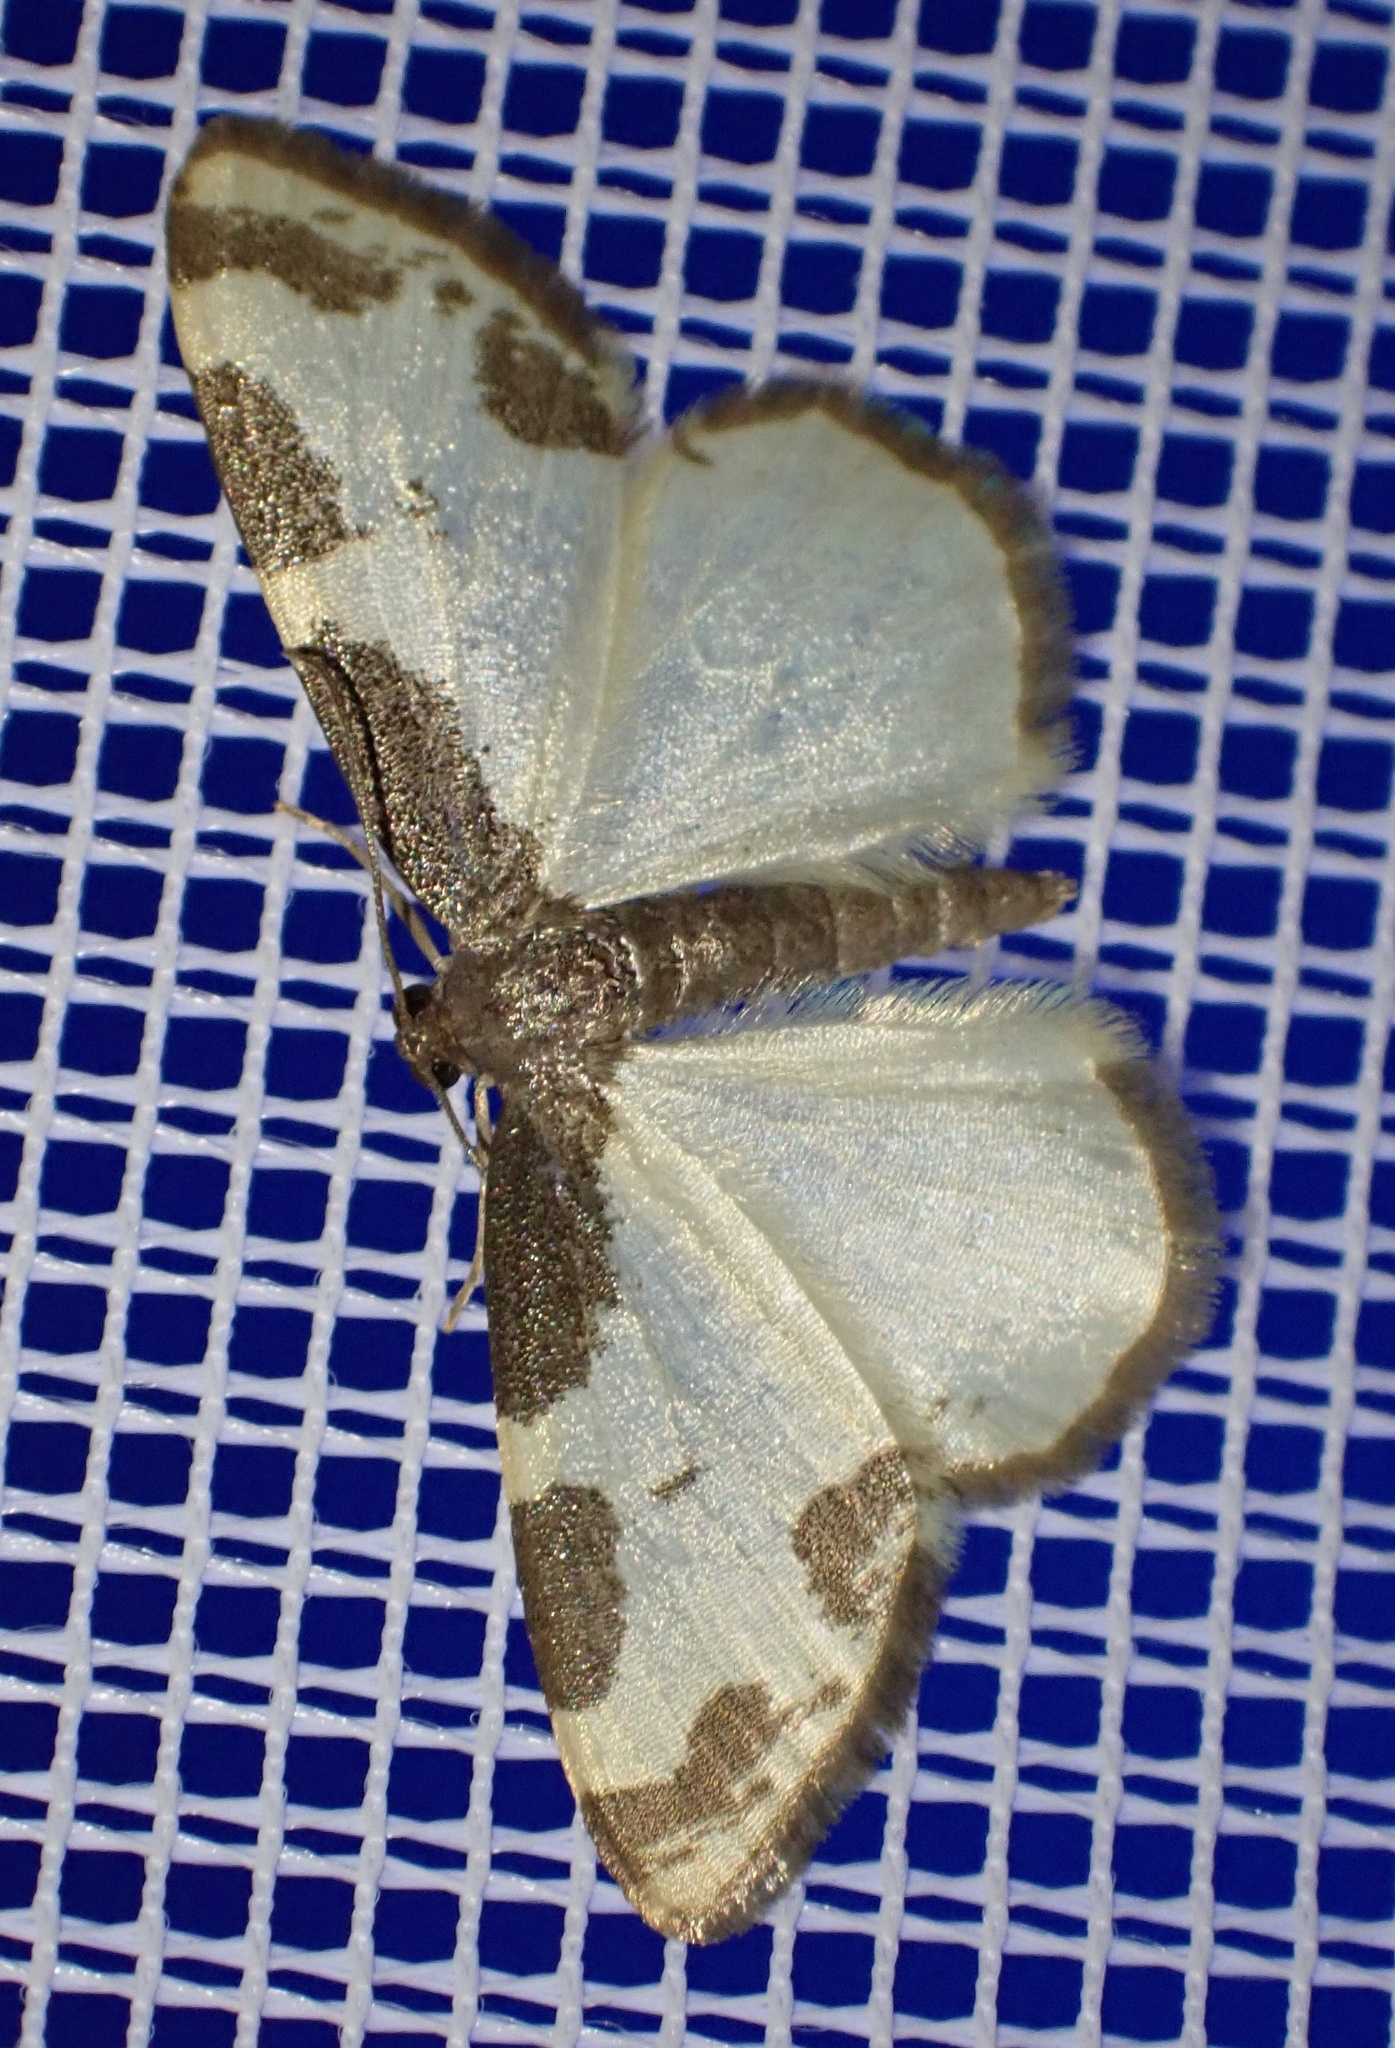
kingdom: Animalia
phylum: Arthropoda
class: Insecta
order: Lepidoptera
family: Geometridae
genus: Lomaspilis
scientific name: Lomaspilis marginata
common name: Clouded border
